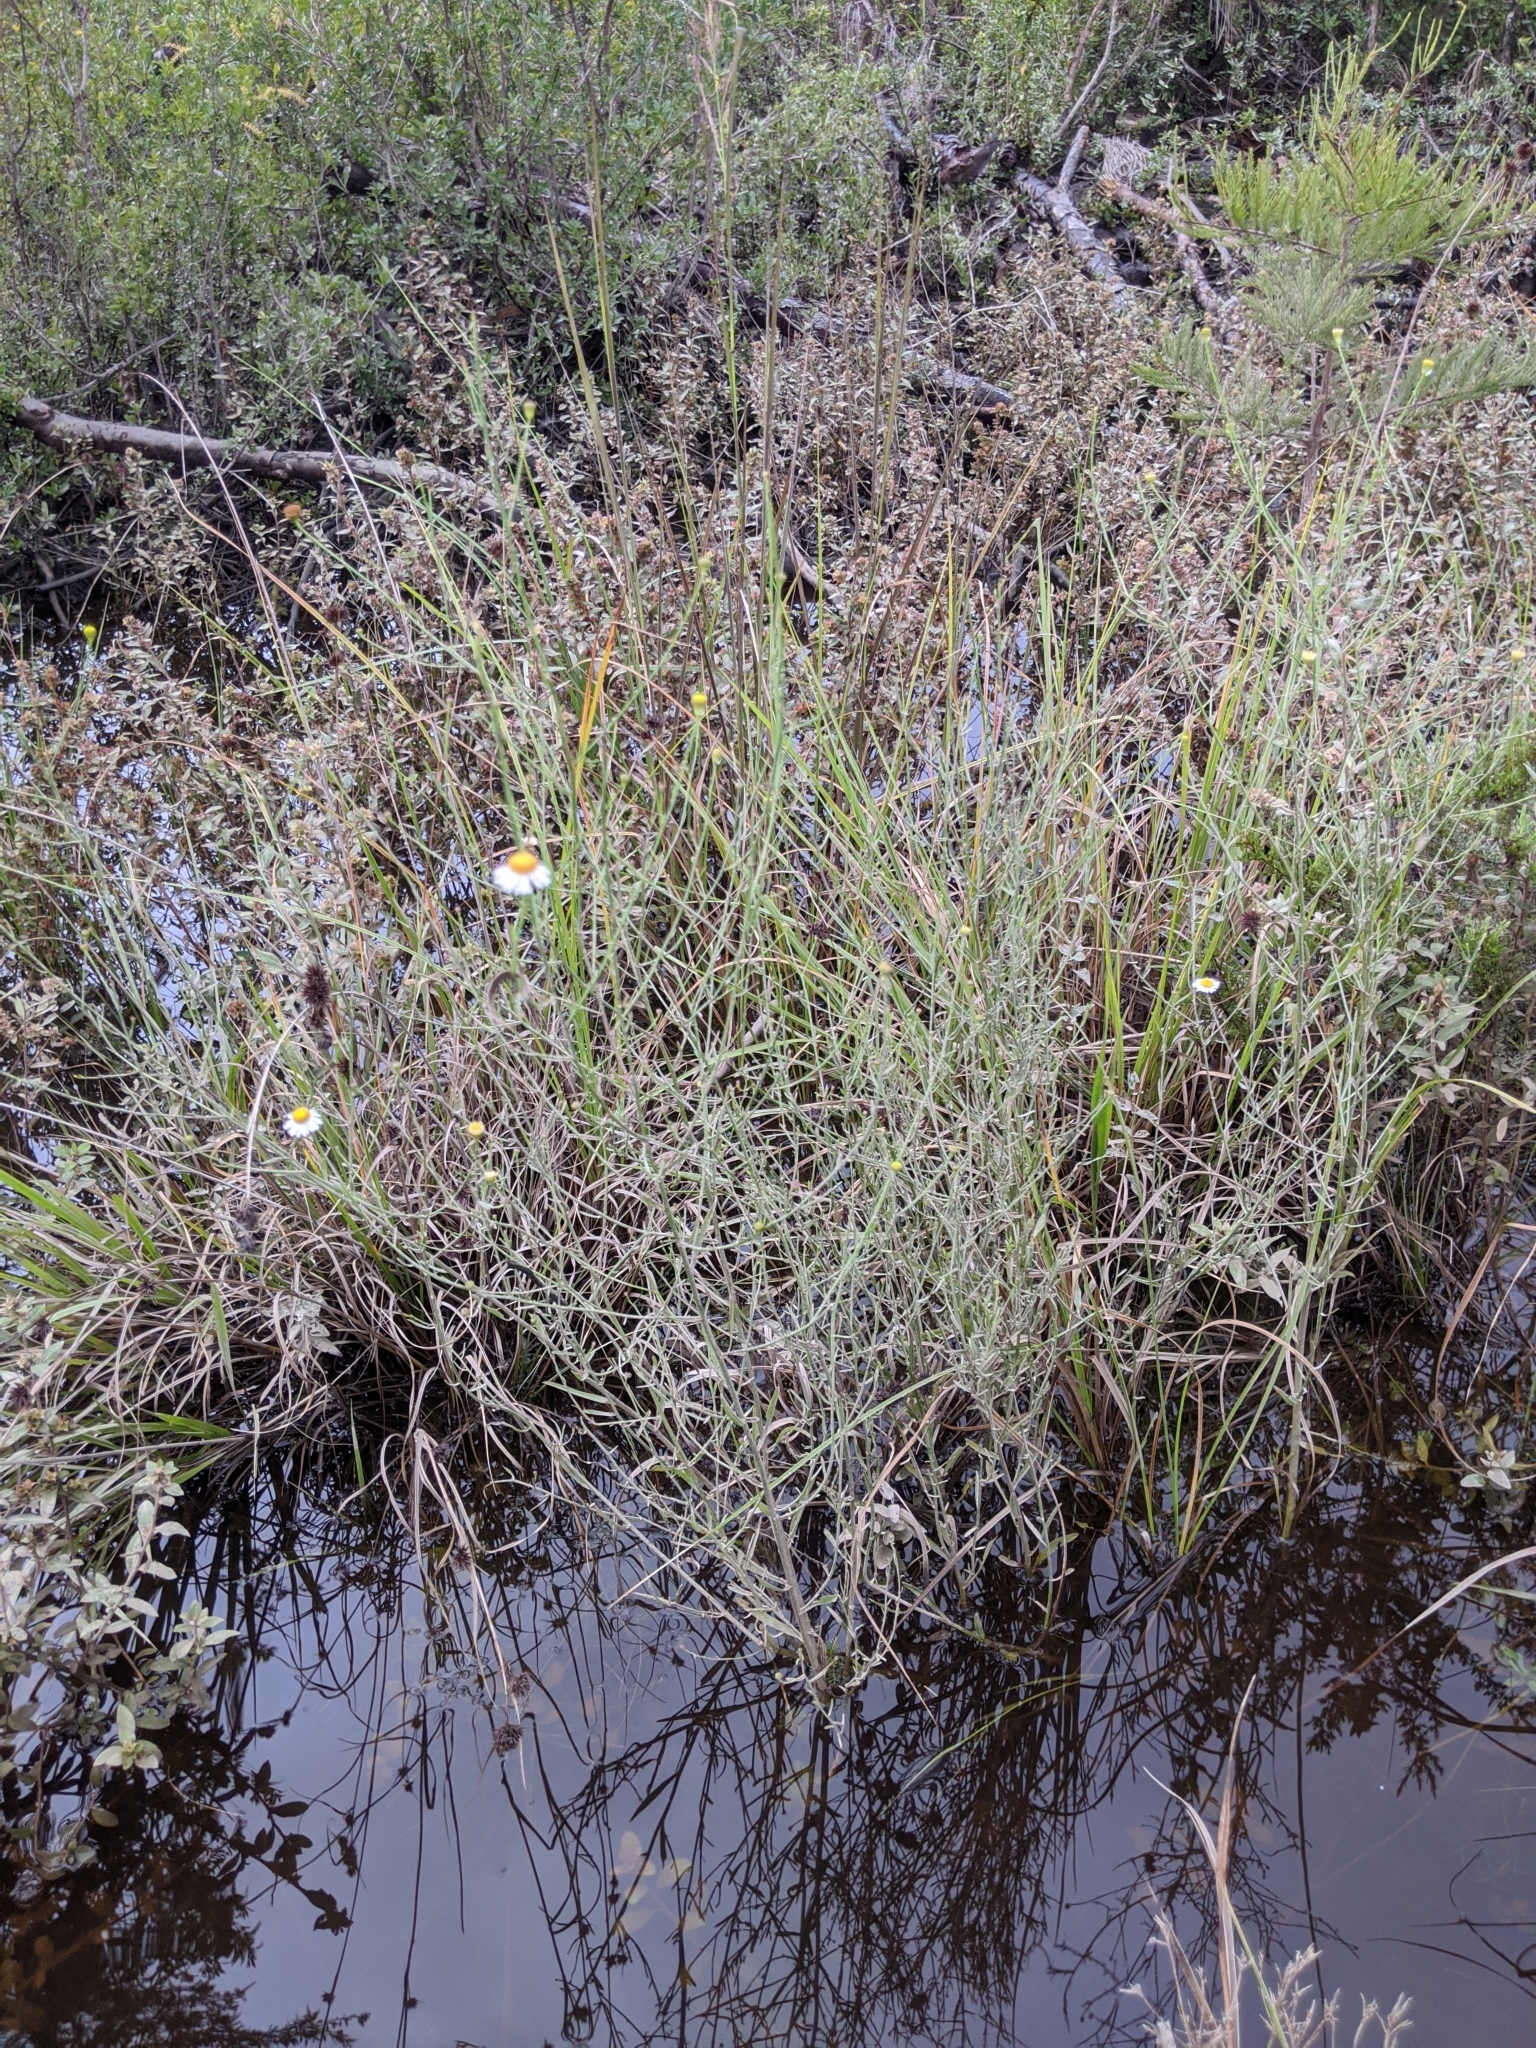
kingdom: Plantae
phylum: Tracheophyta
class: Magnoliopsida
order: Asterales
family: Asteraceae
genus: Boltonia
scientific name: Boltonia diffusa
